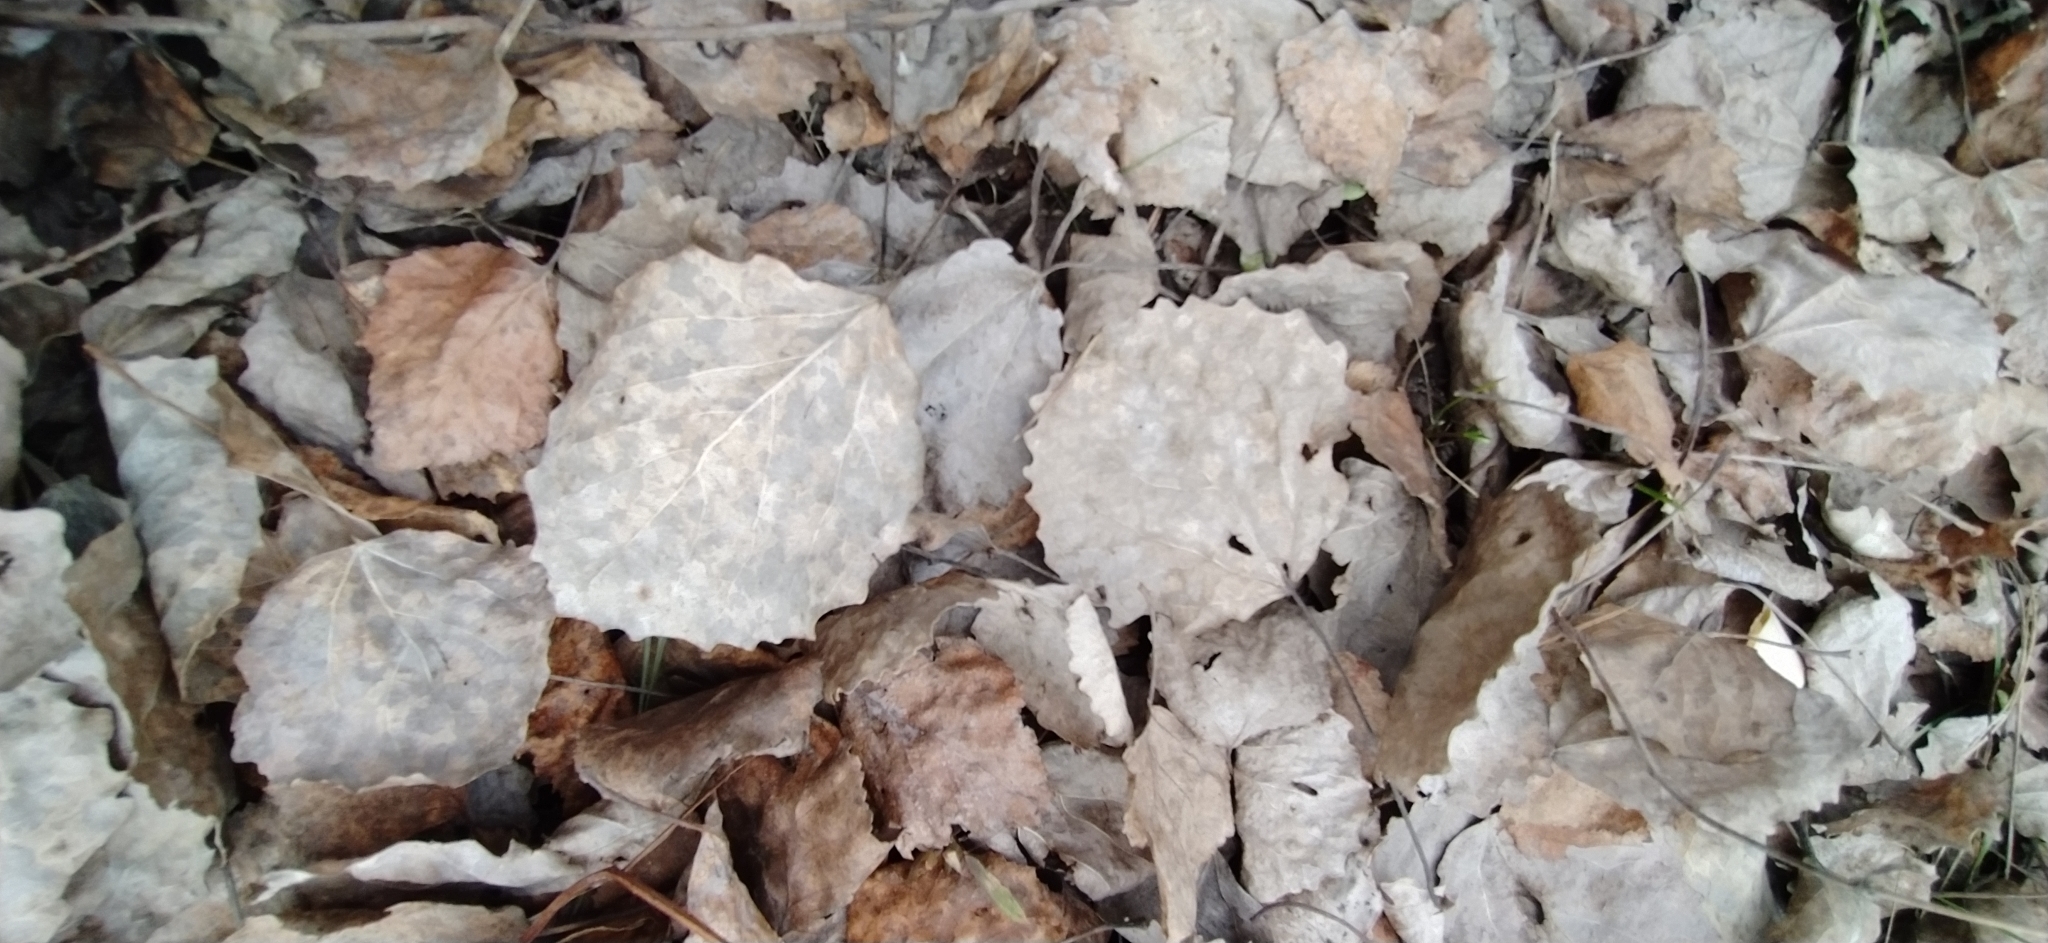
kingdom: Plantae
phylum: Tracheophyta
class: Magnoliopsida
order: Malpighiales
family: Salicaceae
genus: Populus
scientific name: Populus tremula
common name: European aspen
